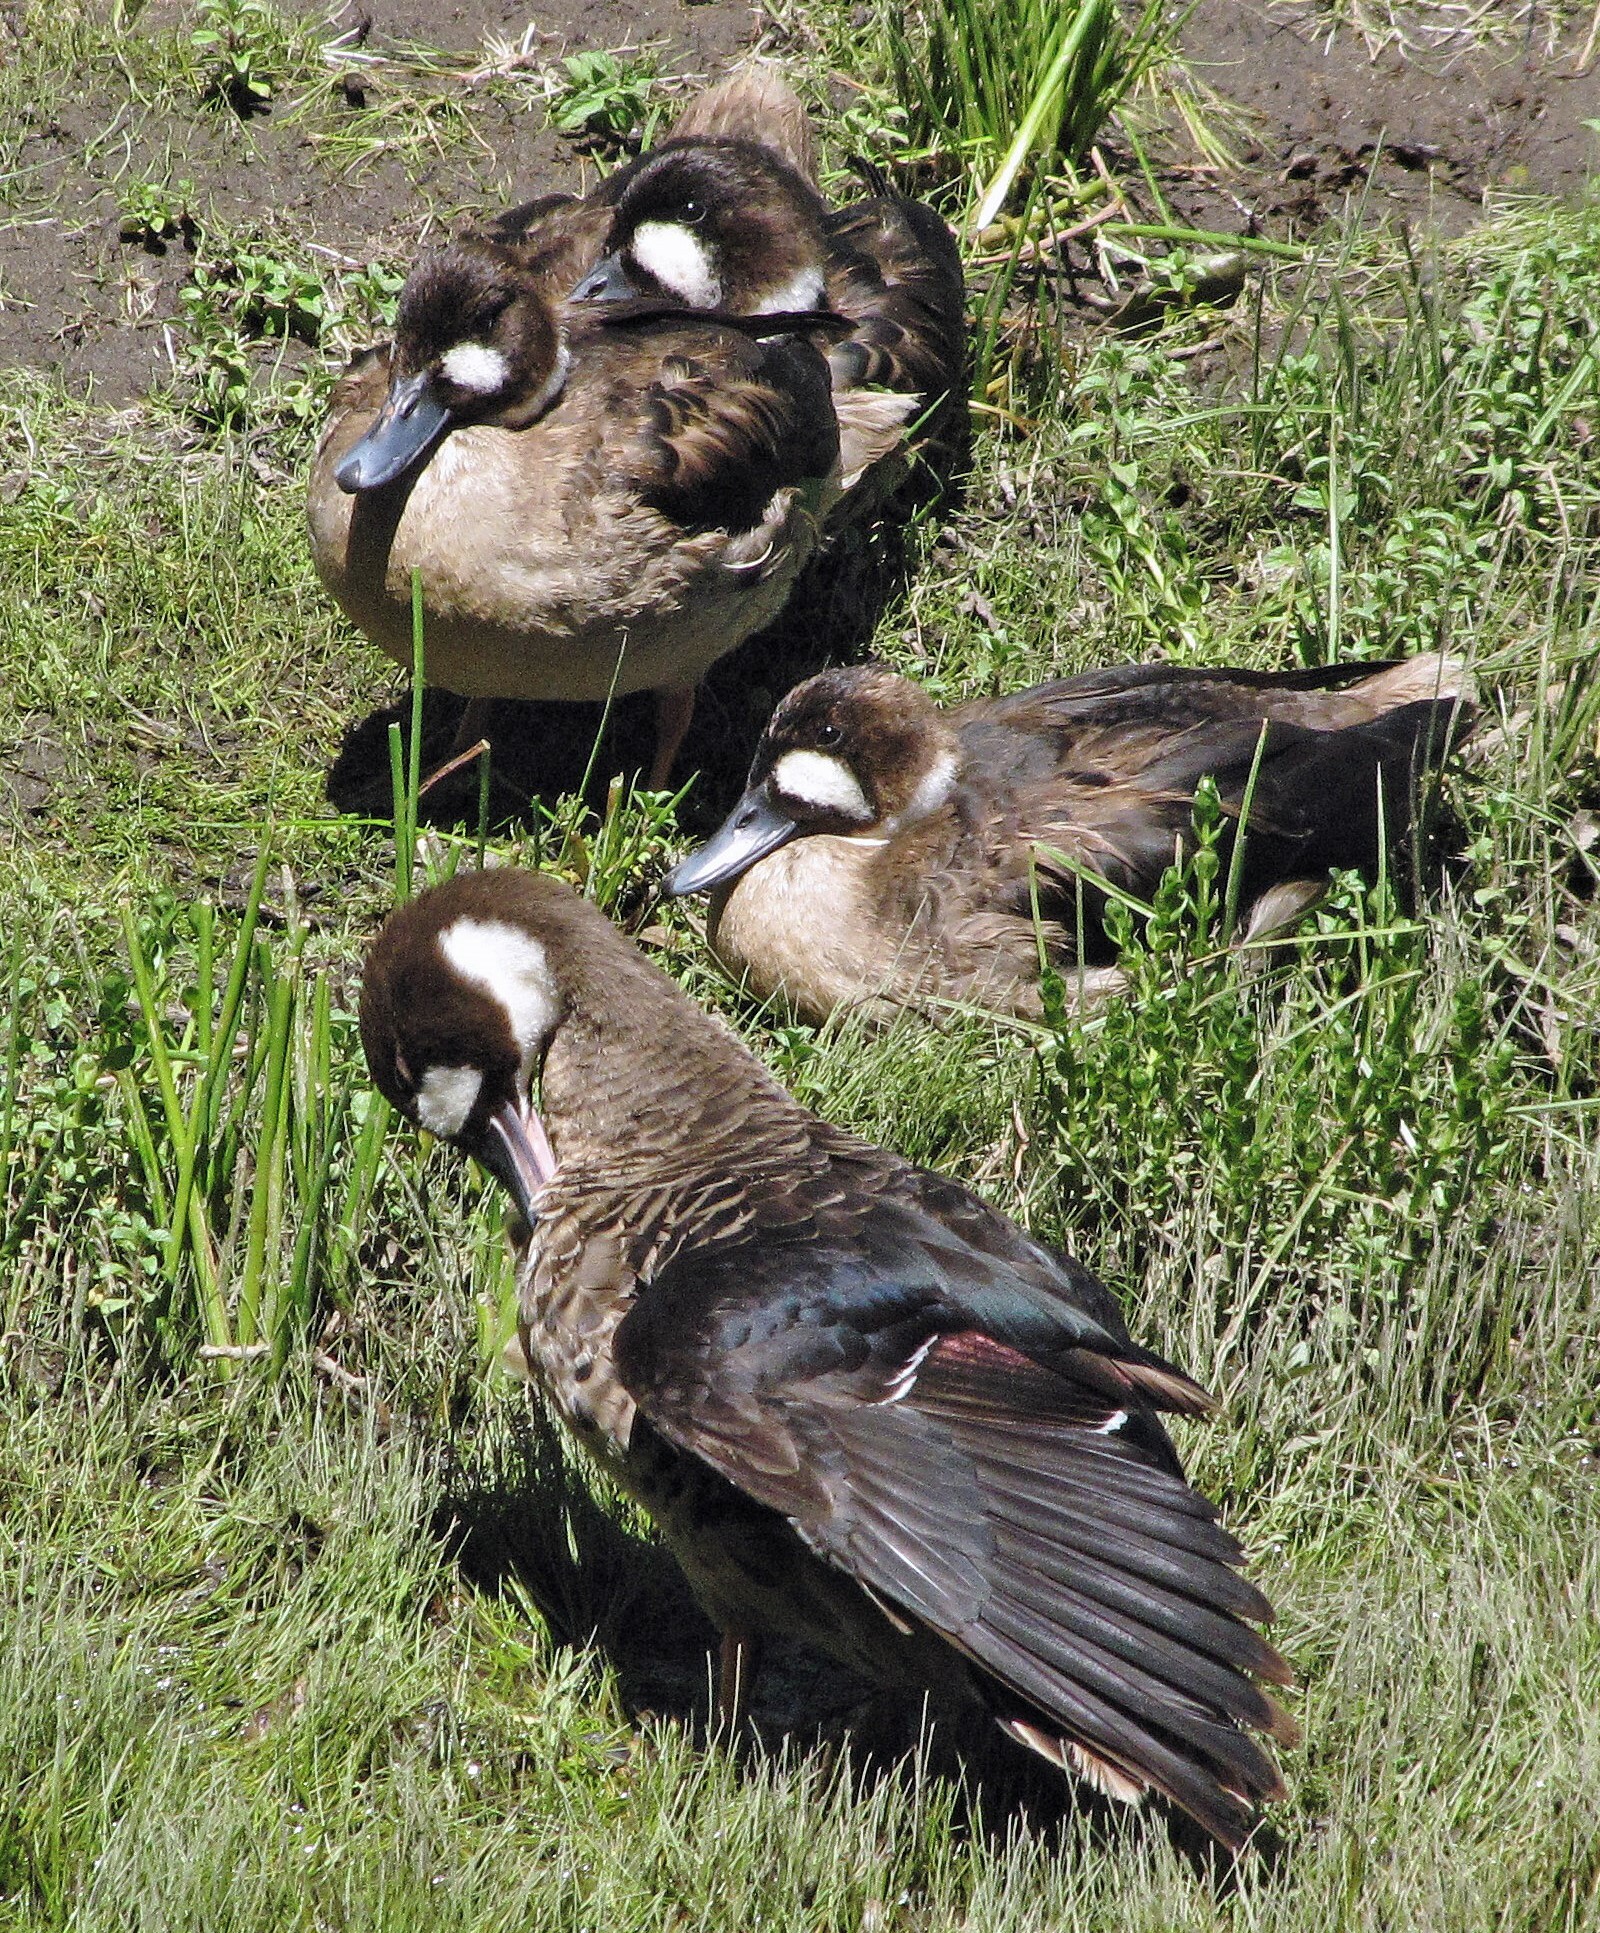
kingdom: Animalia
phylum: Chordata
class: Aves
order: Anseriformes
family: Anatidae
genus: Speculanas
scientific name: Speculanas specularis
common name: Bronze-winged duck
